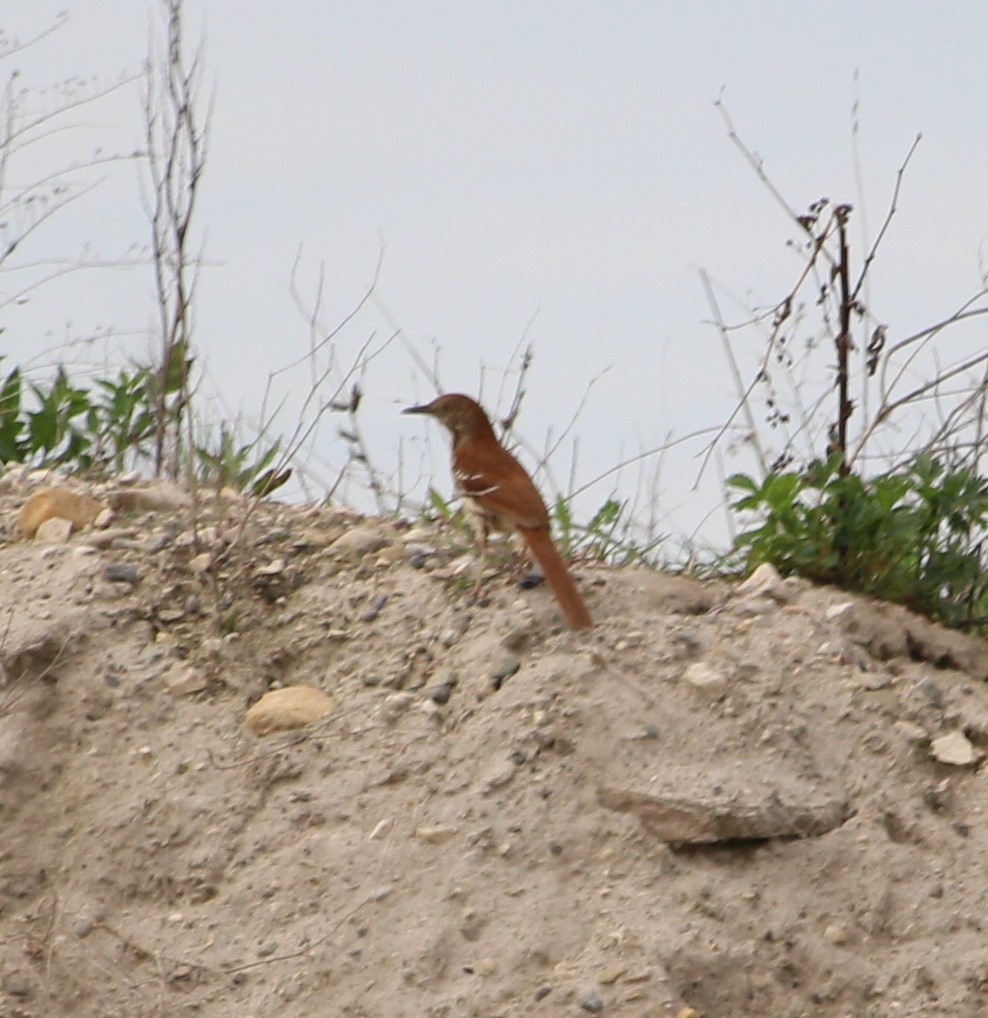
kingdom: Animalia
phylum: Chordata
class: Aves
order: Passeriformes
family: Mimidae
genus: Toxostoma
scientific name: Toxostoma rufum
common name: Brown thrasher
